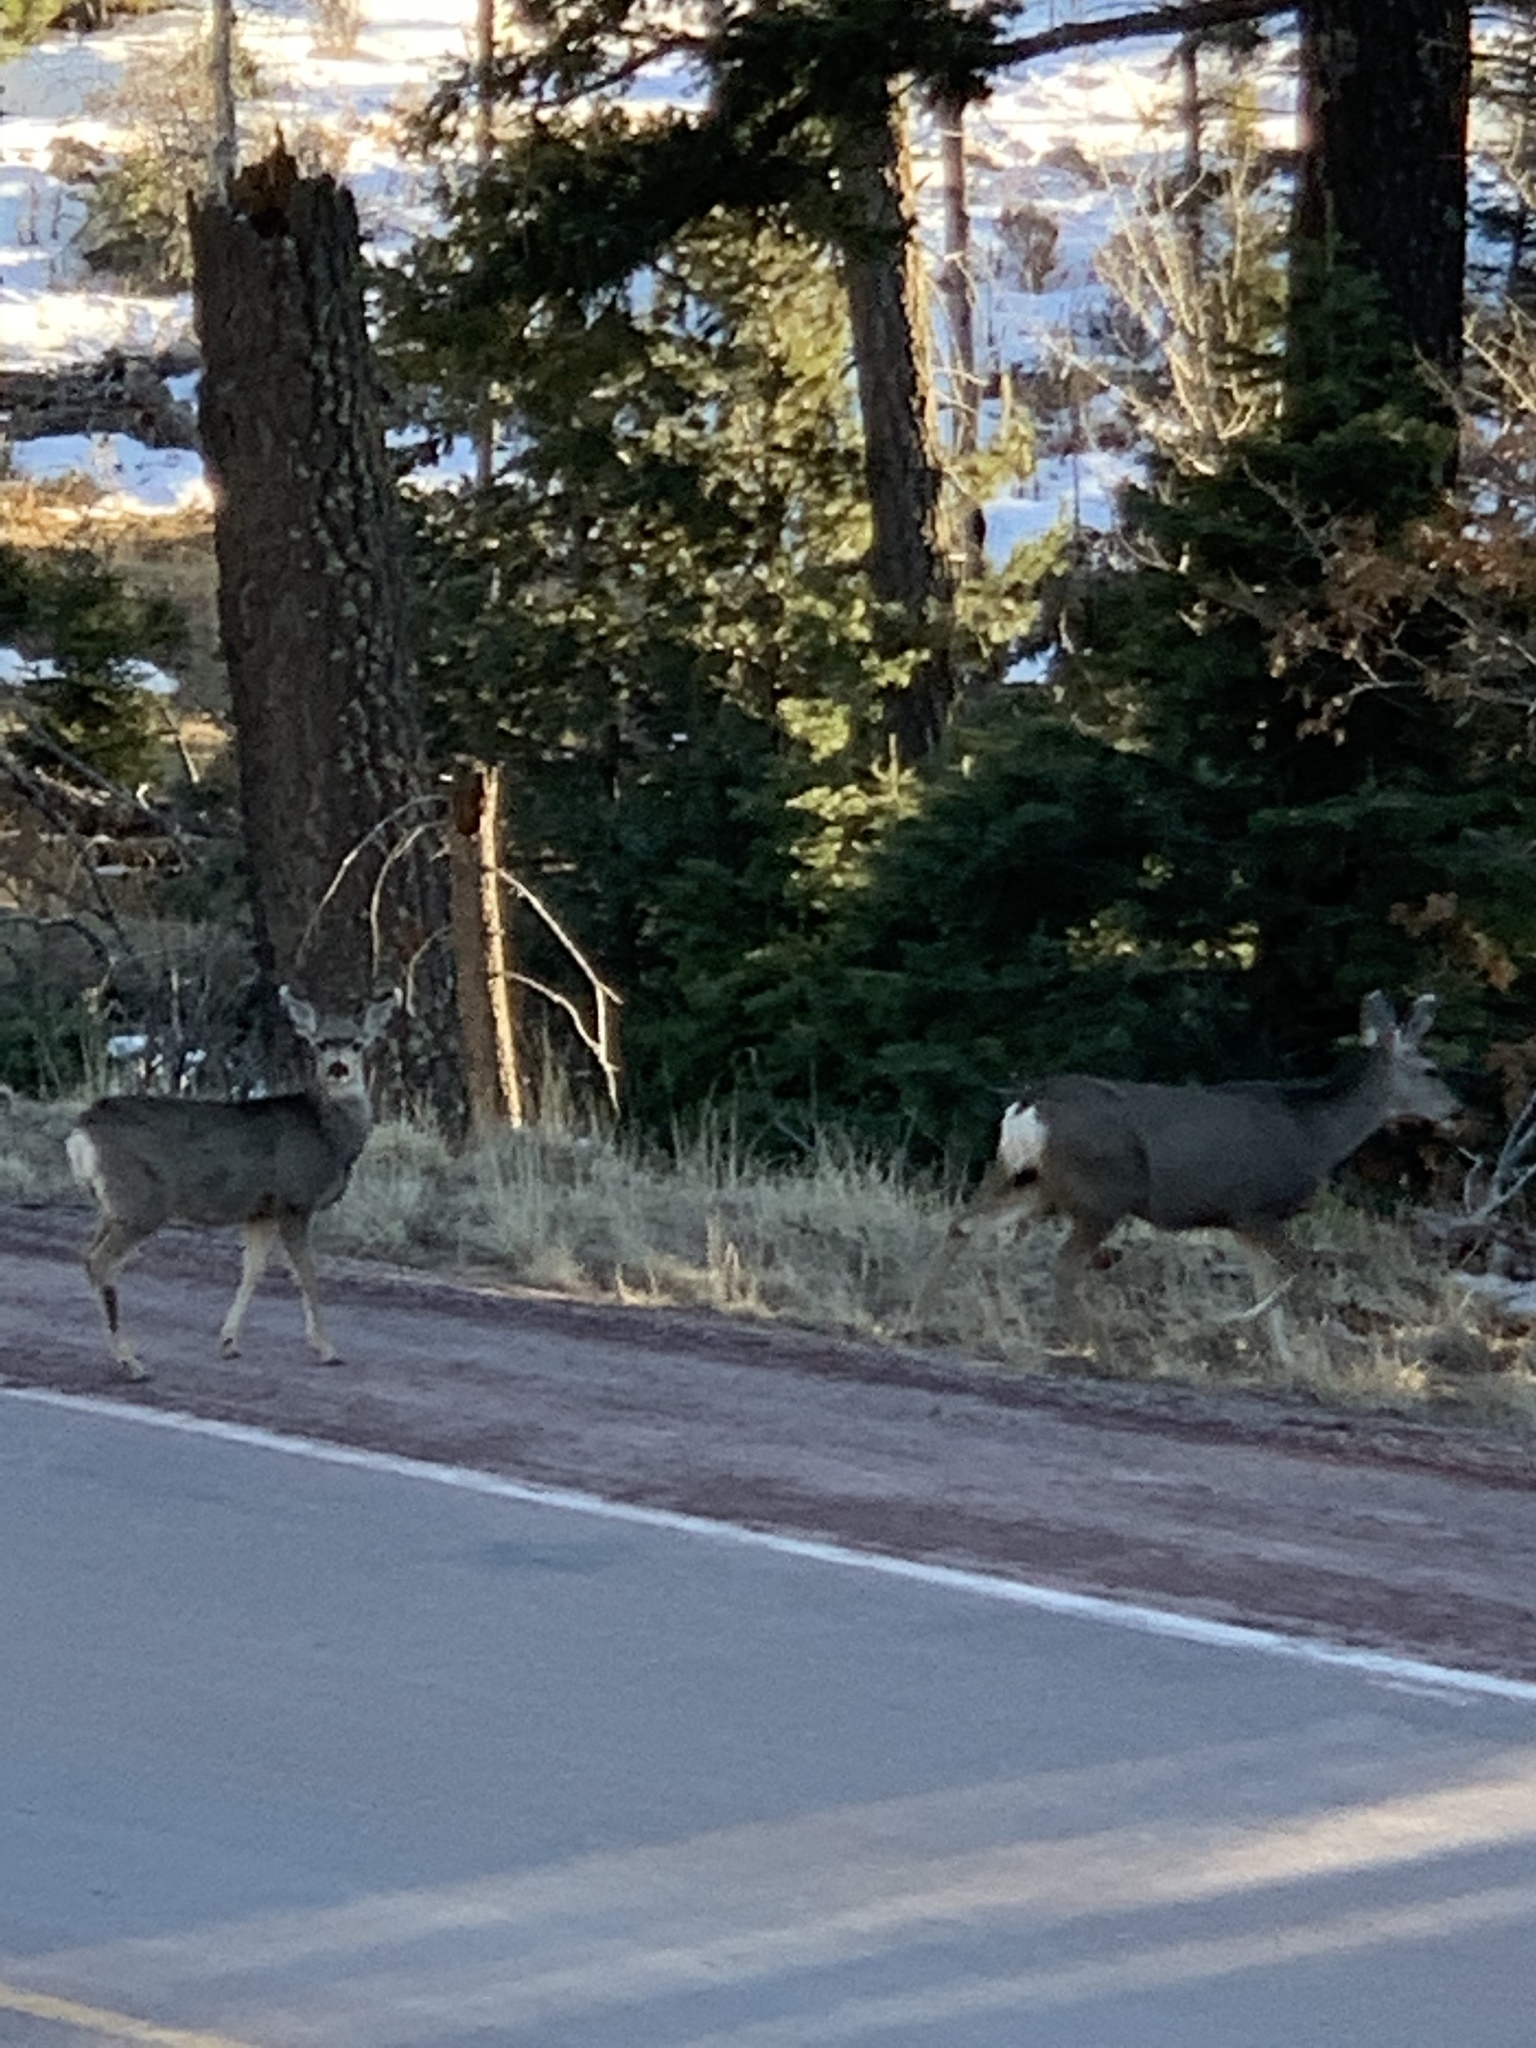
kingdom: Animalia
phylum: Chordata
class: Mammalia
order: Artiodactyla
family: Cervidae
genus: Odocoileus
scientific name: Odocoileus hemionus
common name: Mule deer
